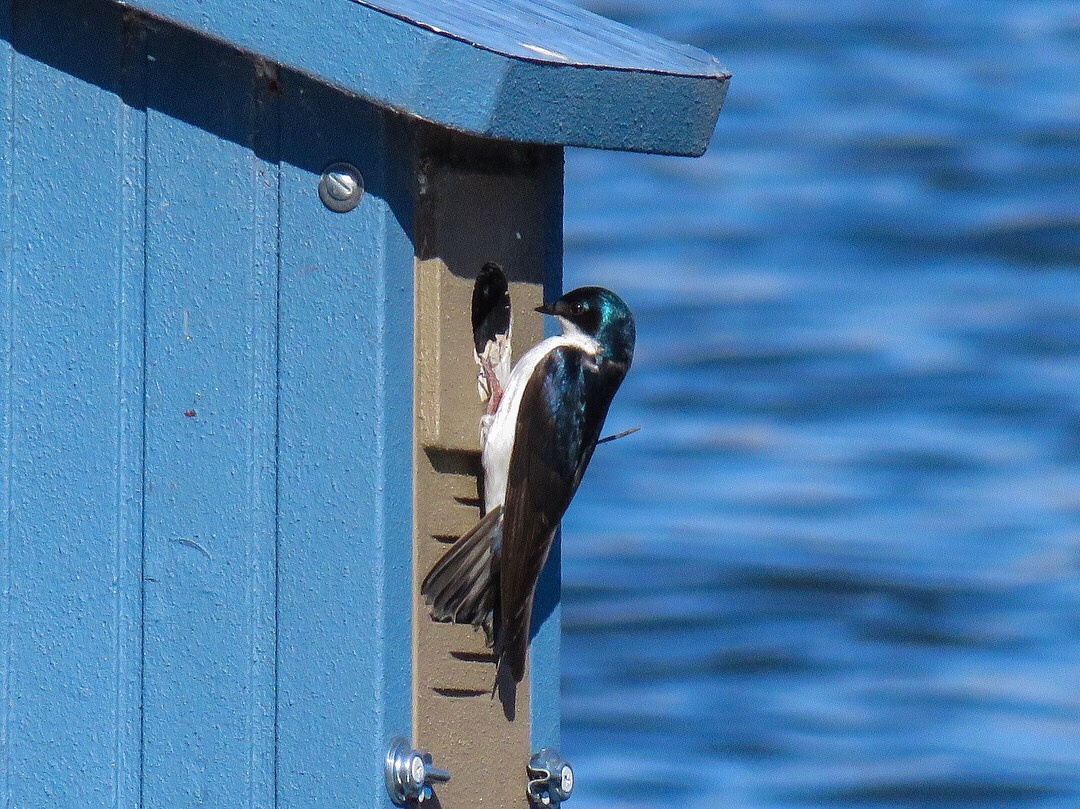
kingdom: Animalia
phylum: Chordata
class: Aves
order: Passeriformes
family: Hirundinidae
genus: Tachycineta
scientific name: Tachycineta bicolor
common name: Tree swallow
